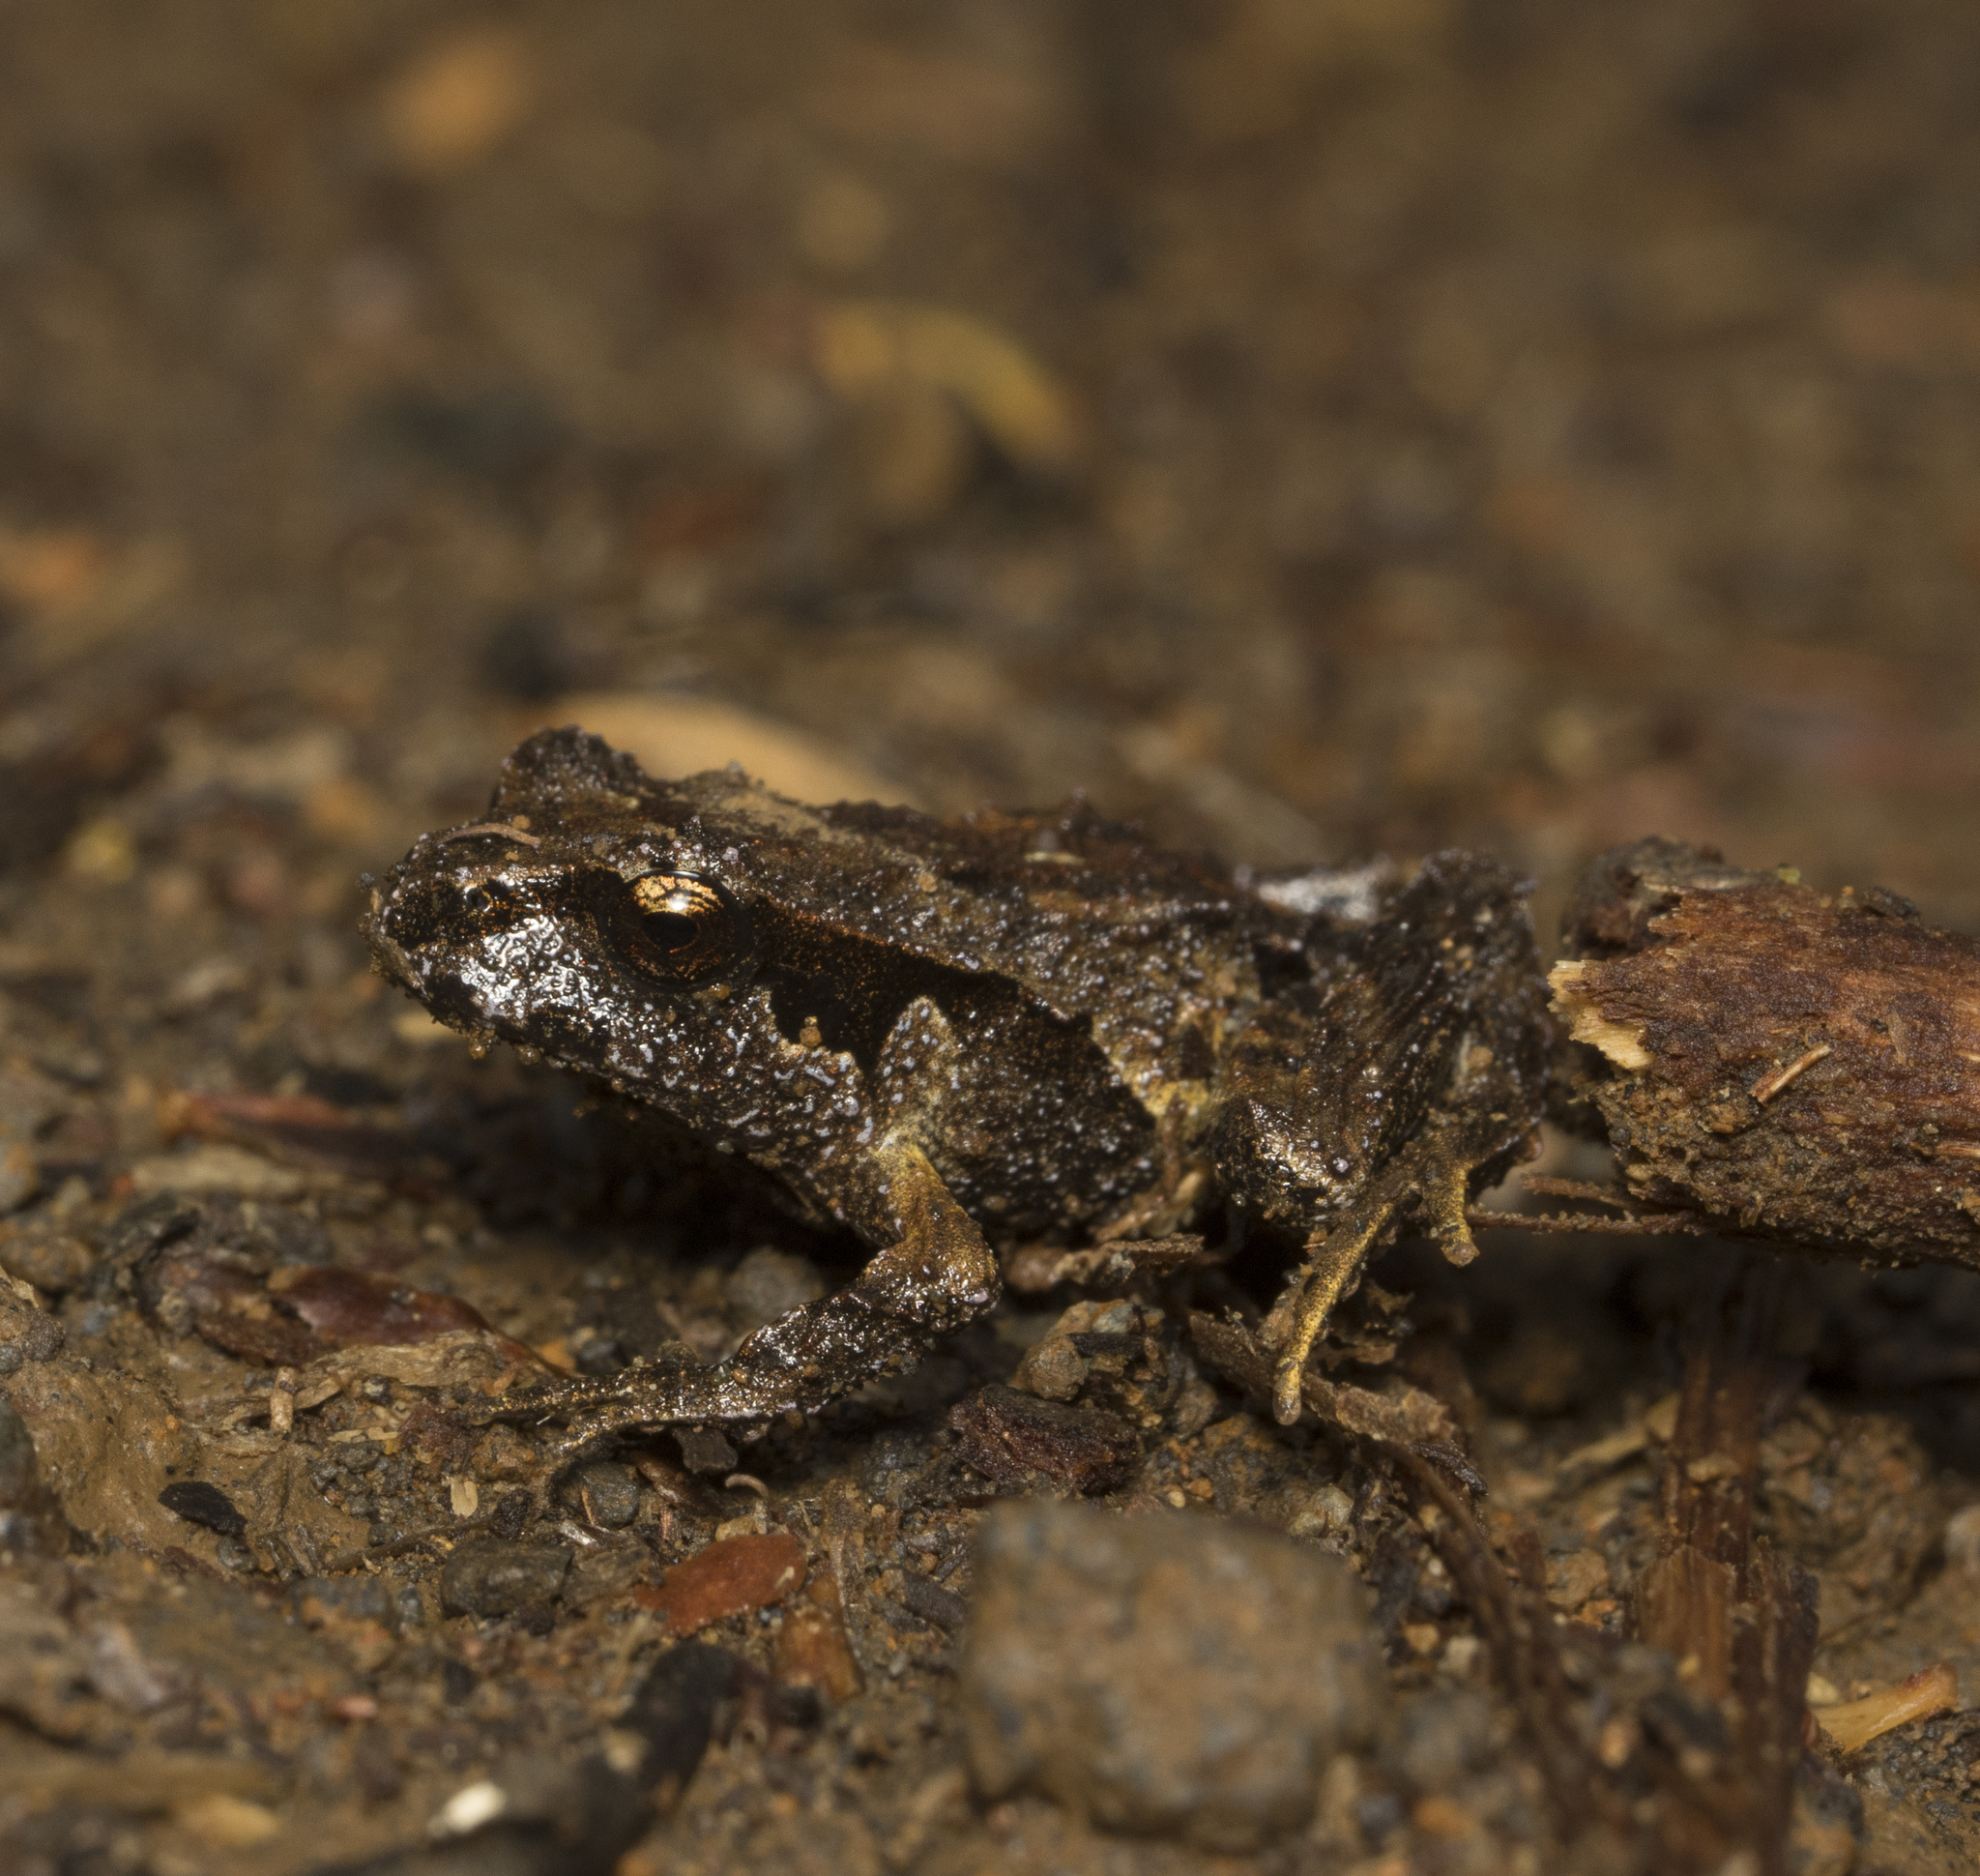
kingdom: Animalia
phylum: Chordata
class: Amphibia
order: Anura
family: Alsodidae
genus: Eupsophus
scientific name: Eupsophus roseus
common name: Rosy ground frog
